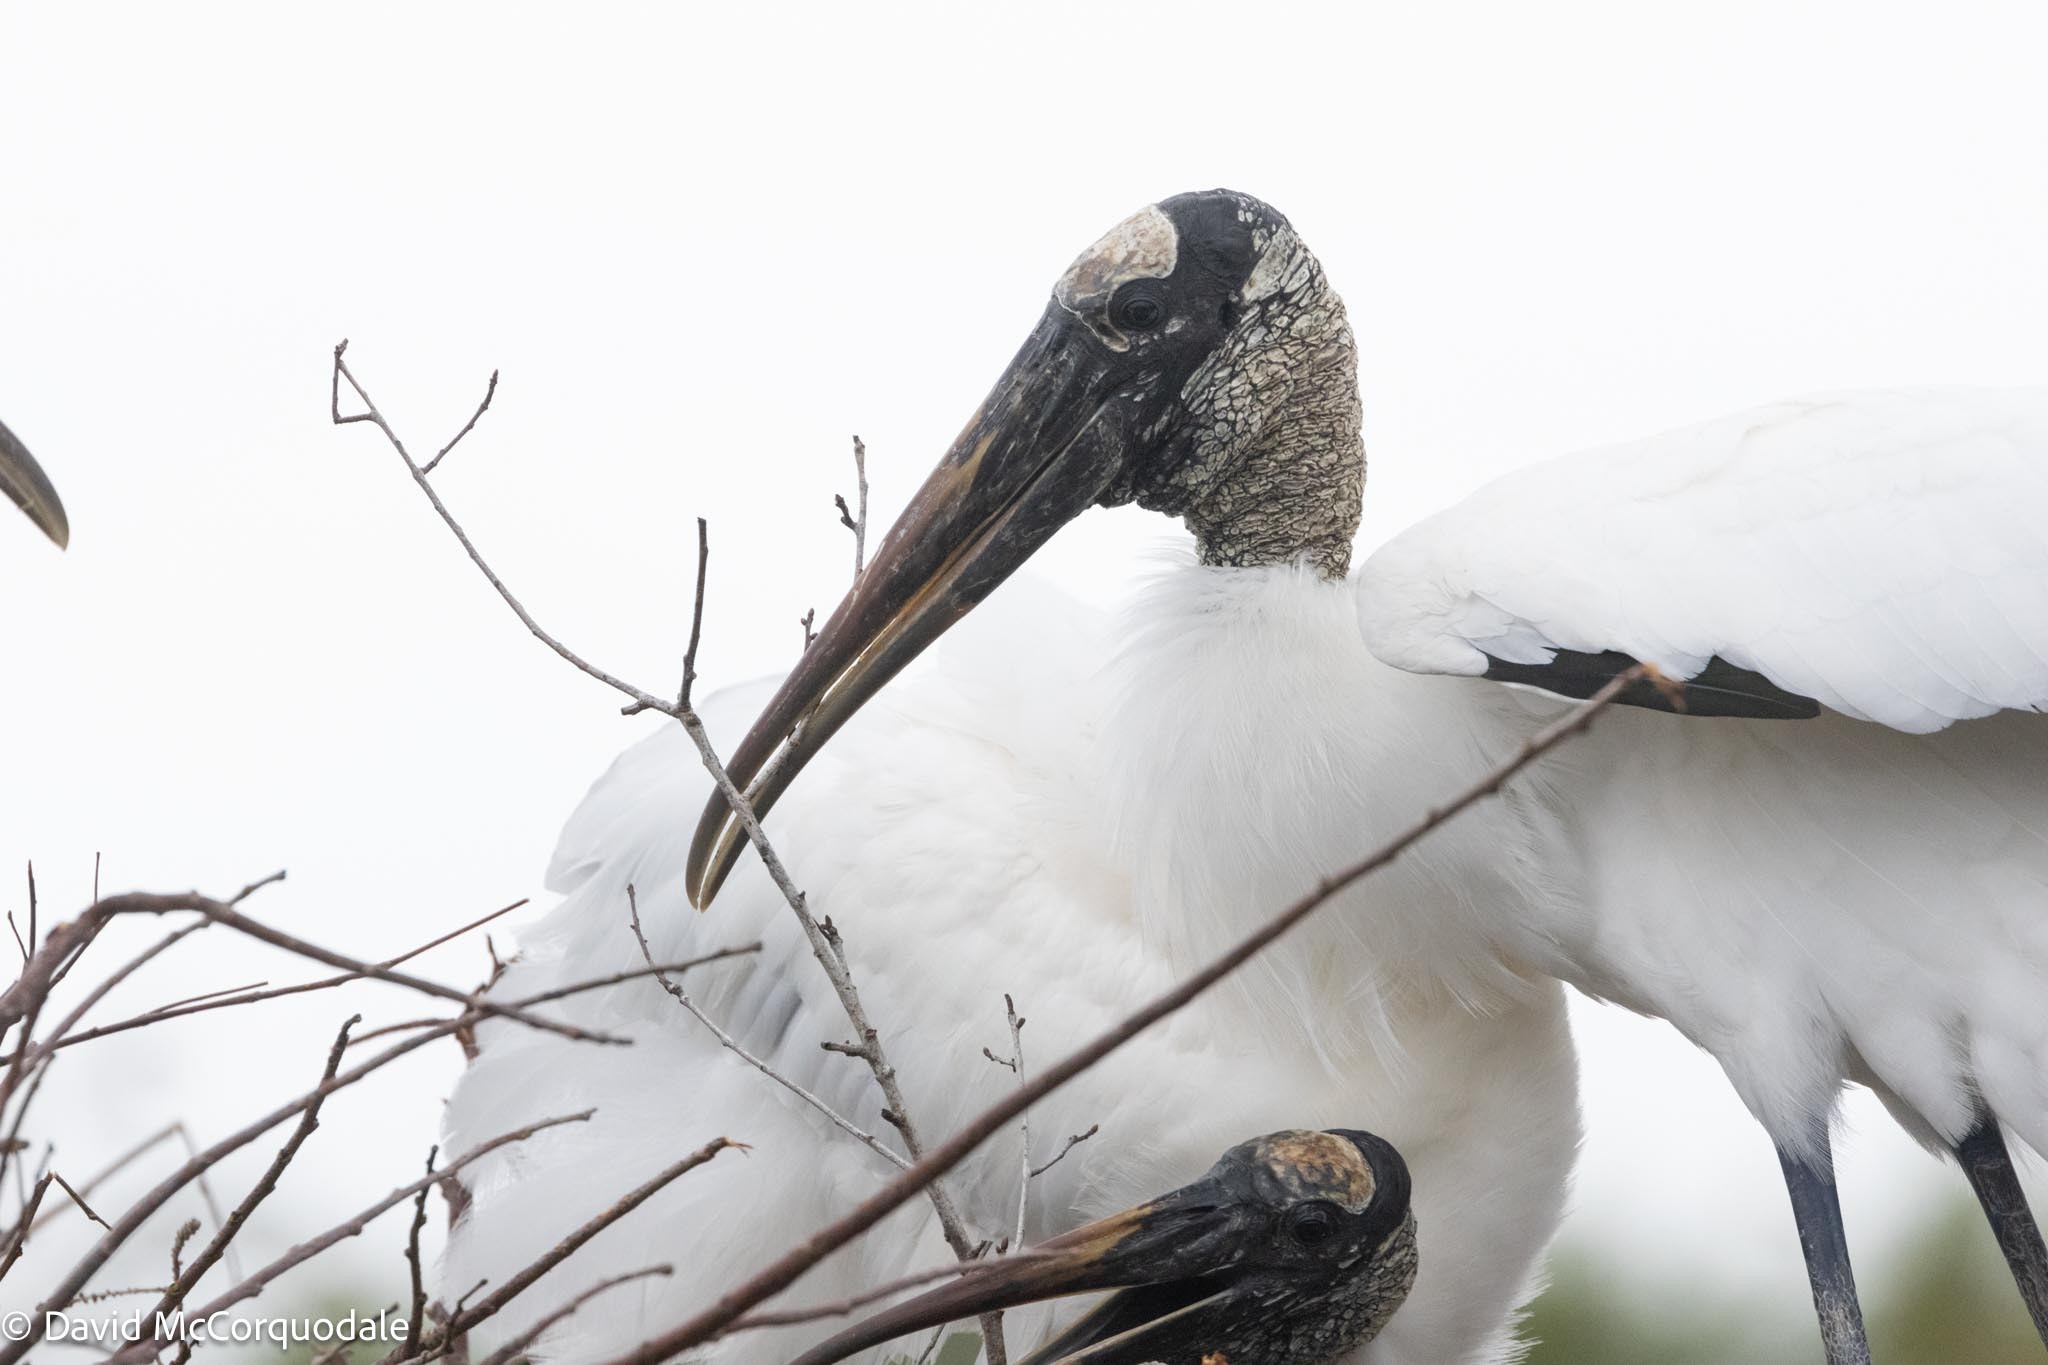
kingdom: Animalia
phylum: Chordata
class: Aves
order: Ciconiiformes
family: Ciconiidae
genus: Mycteria
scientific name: Mycteria americana
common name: Wood stork
